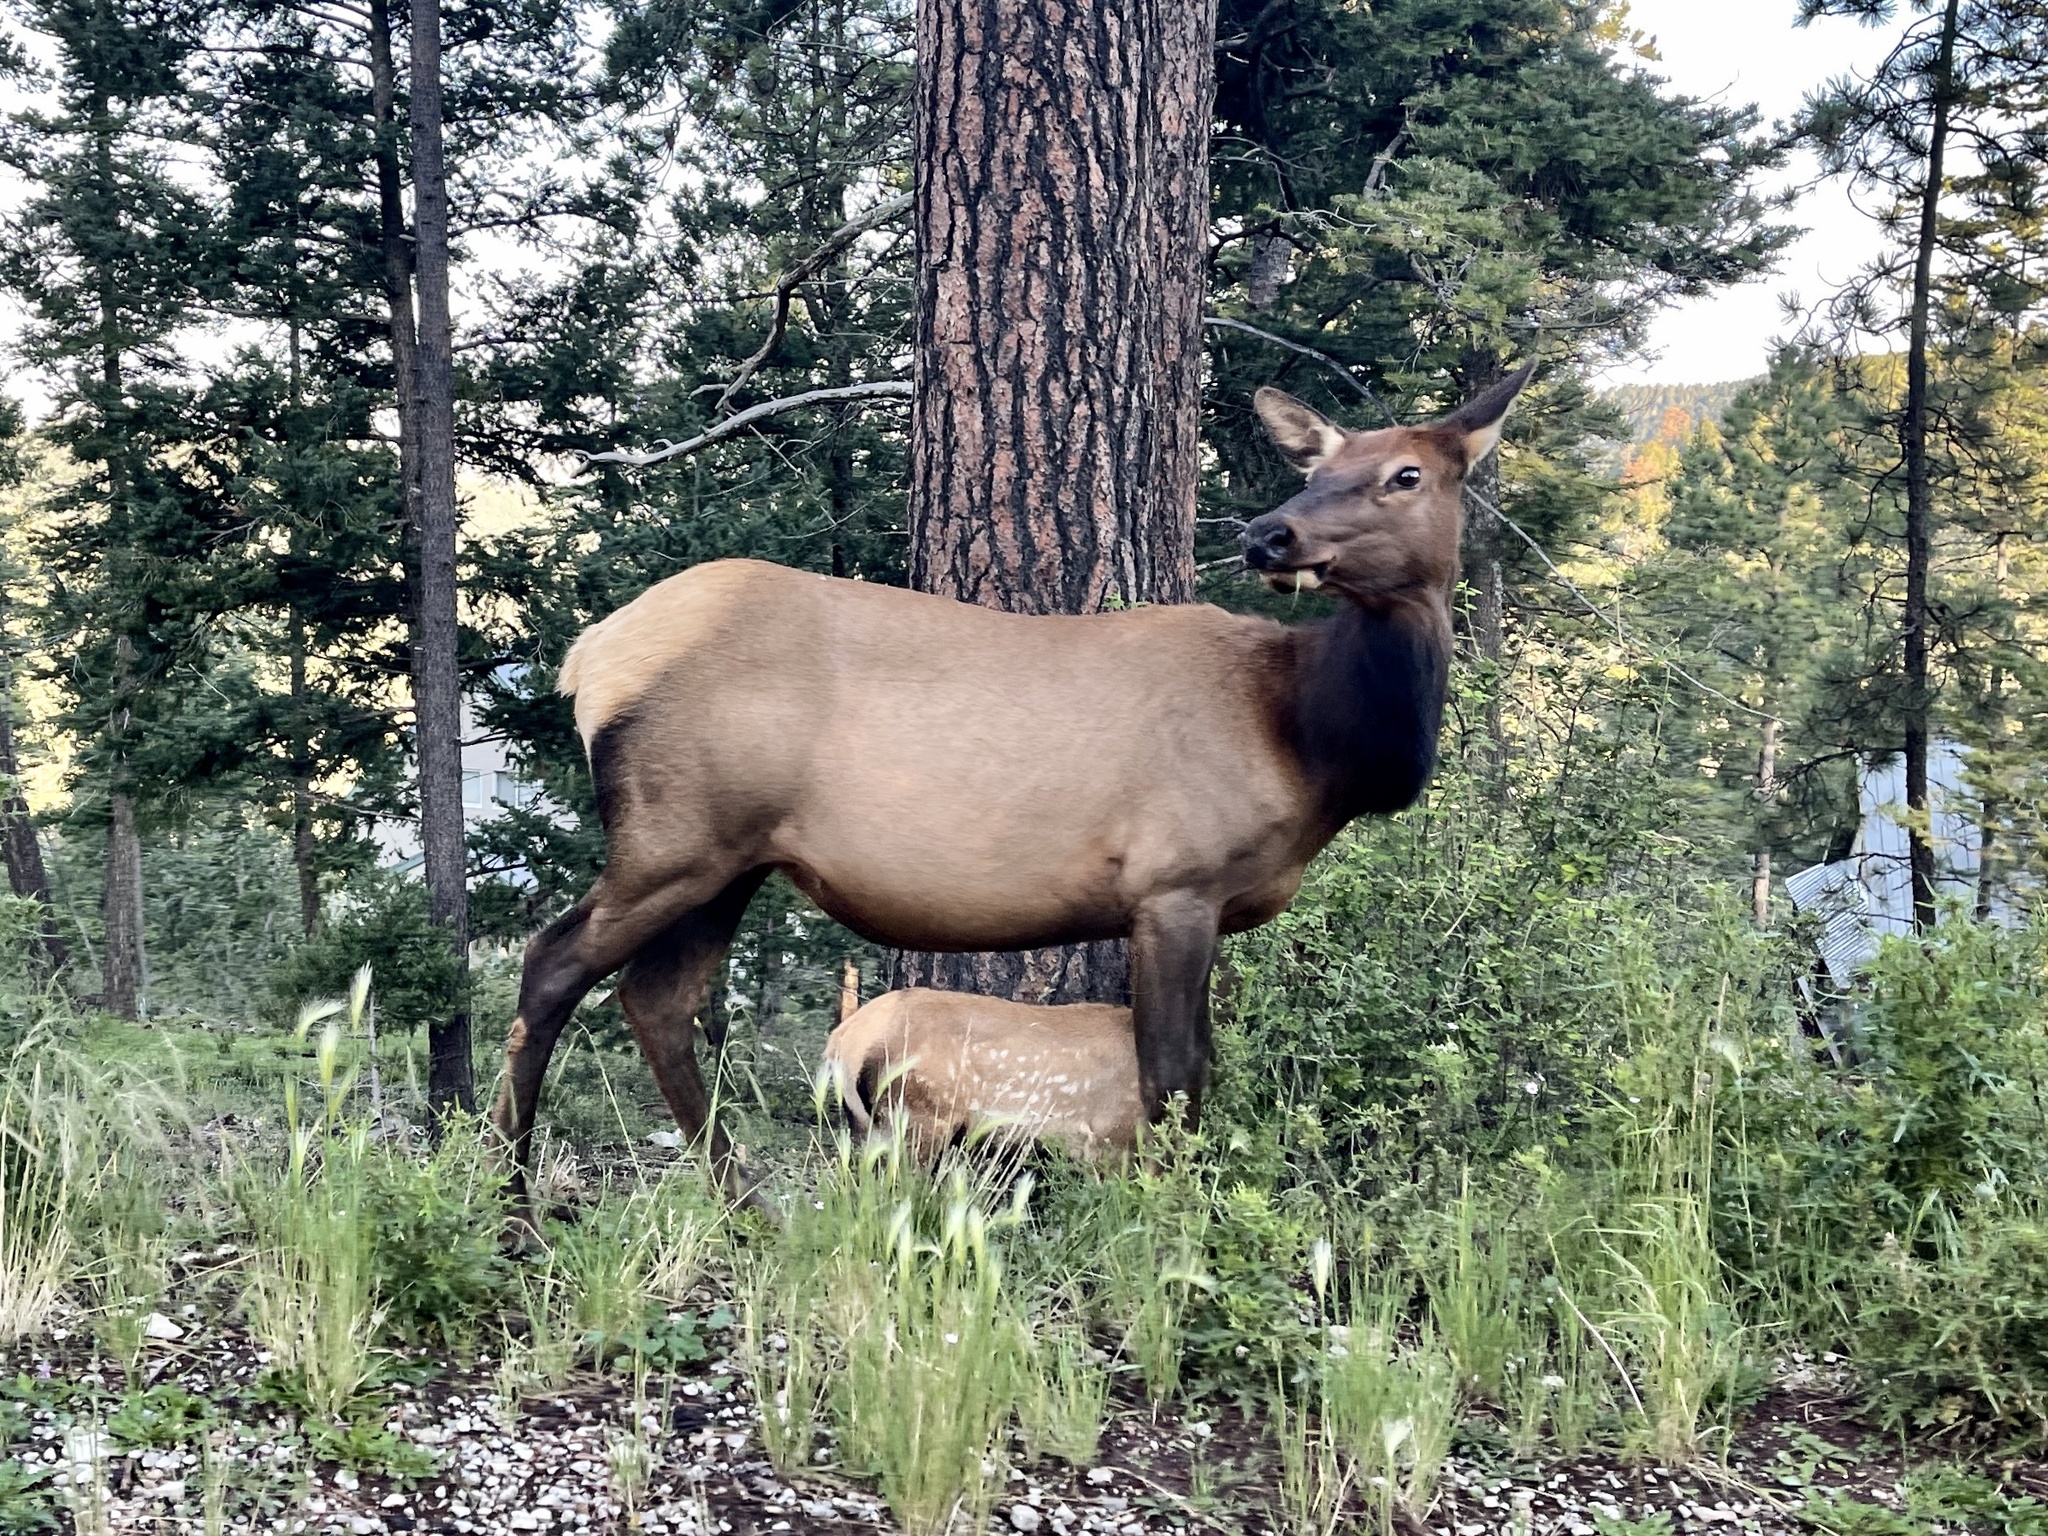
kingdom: Animalia
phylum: Chordata
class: Mammalia
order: Artiodactyla
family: Cervidae
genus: Cervus
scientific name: Cervus elaphus
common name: Red deer
